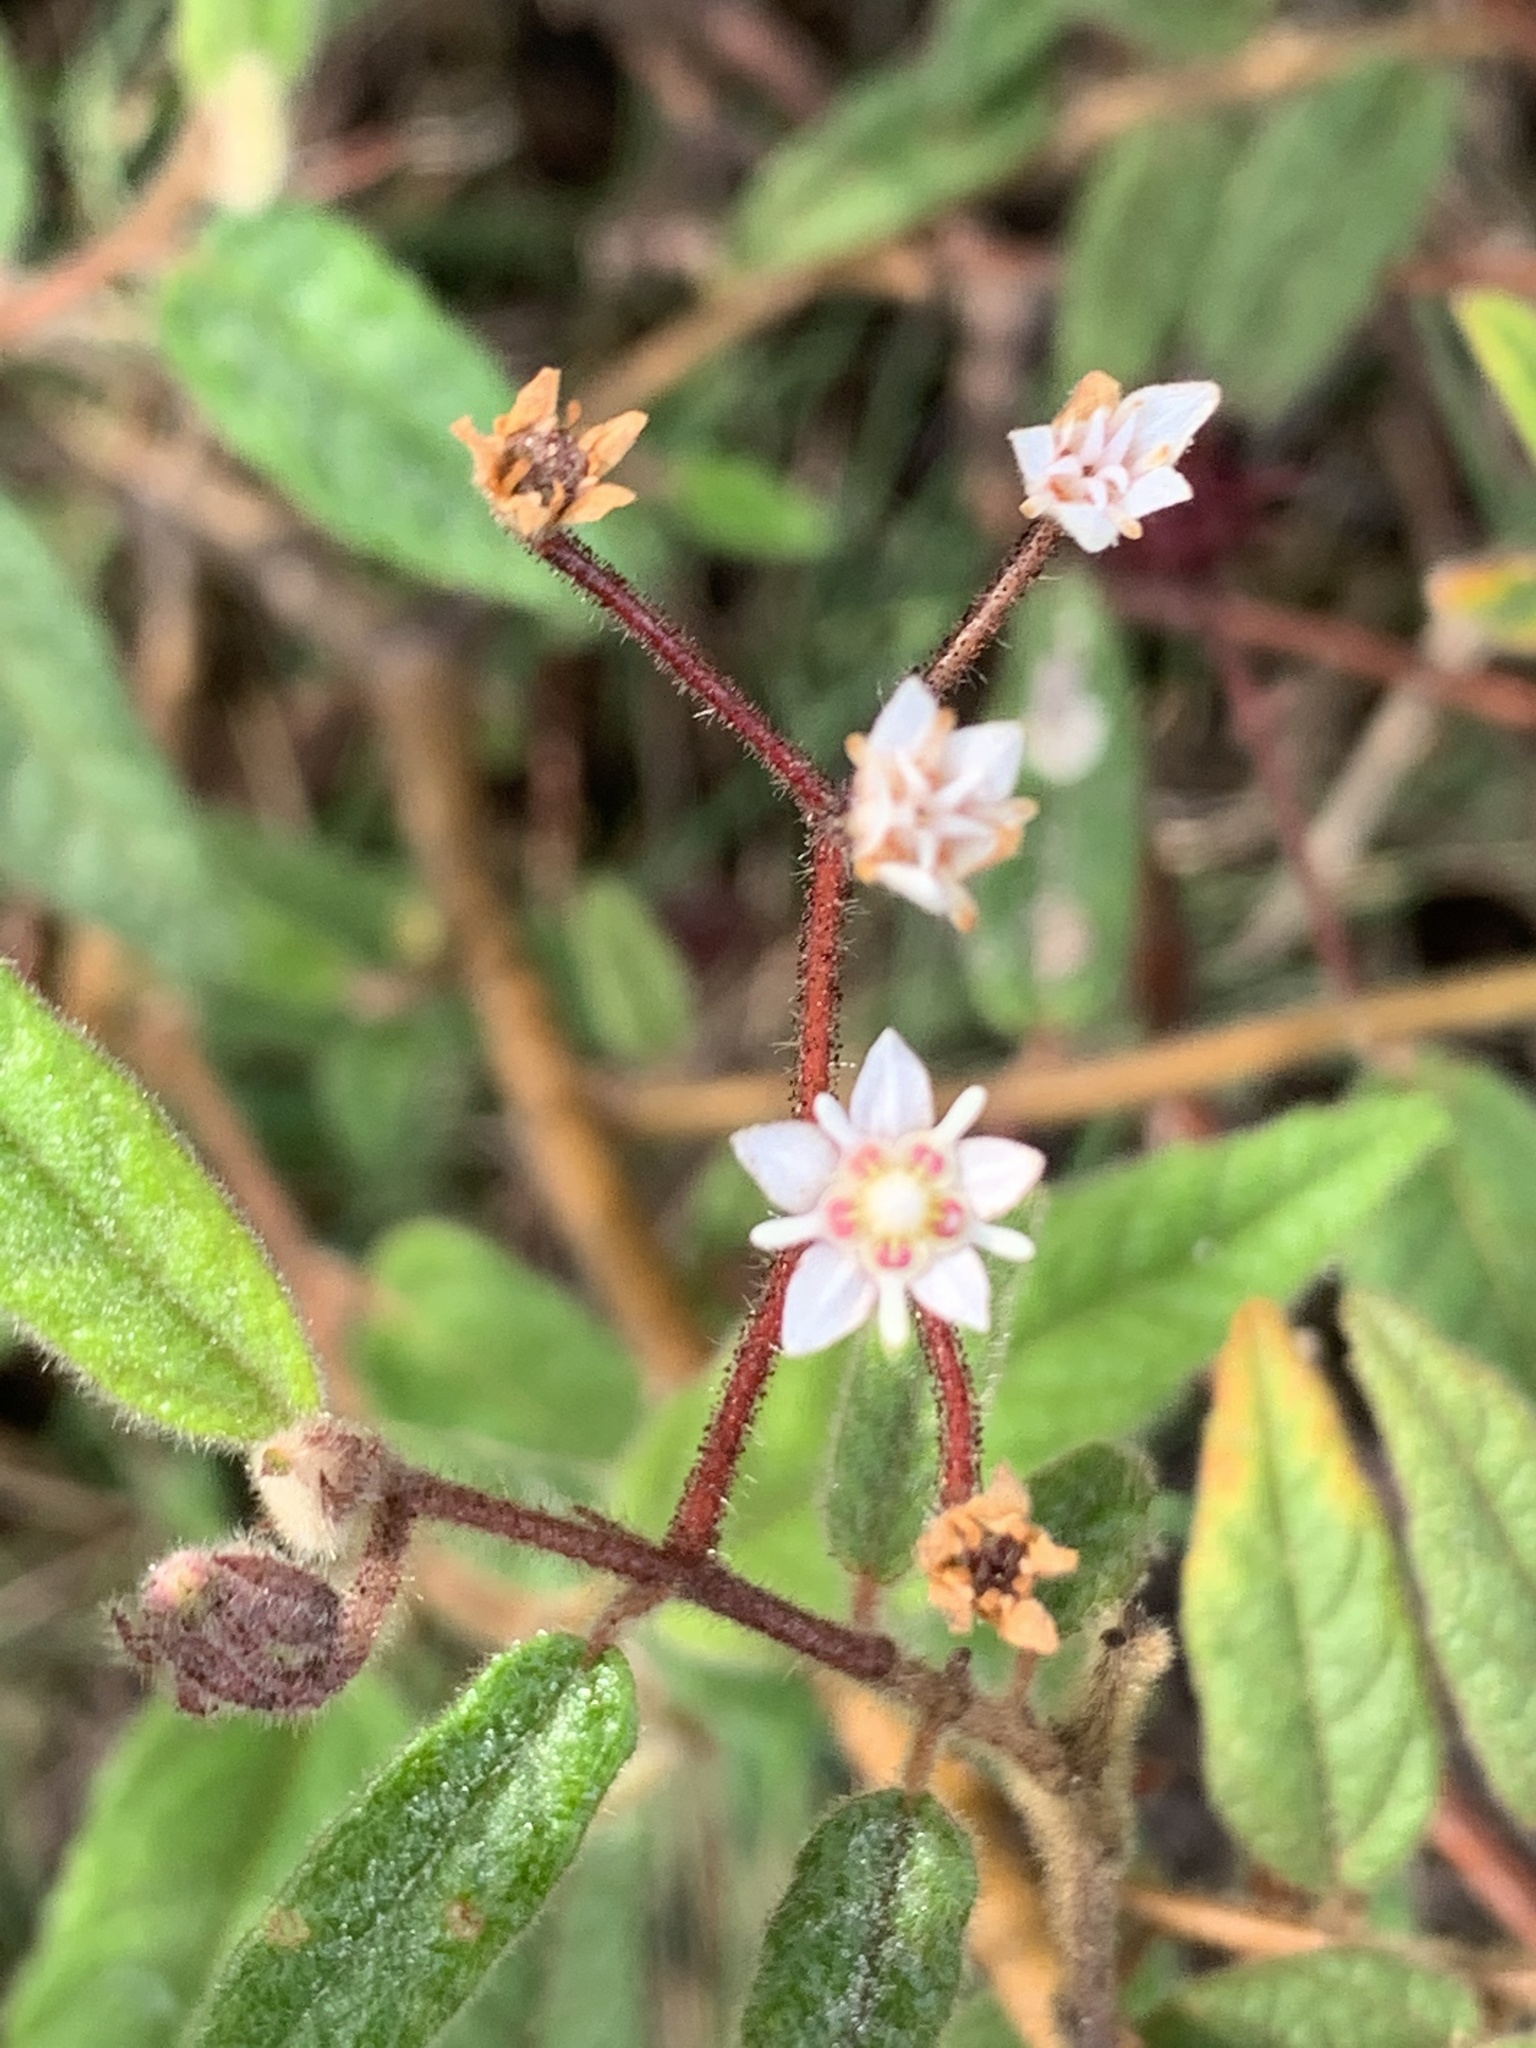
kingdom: Plantae
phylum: Tracheophyta
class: Magnoliopsida
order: Malvales
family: Malvaceae
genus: Commersonia
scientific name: Commersonia dasyphylla
